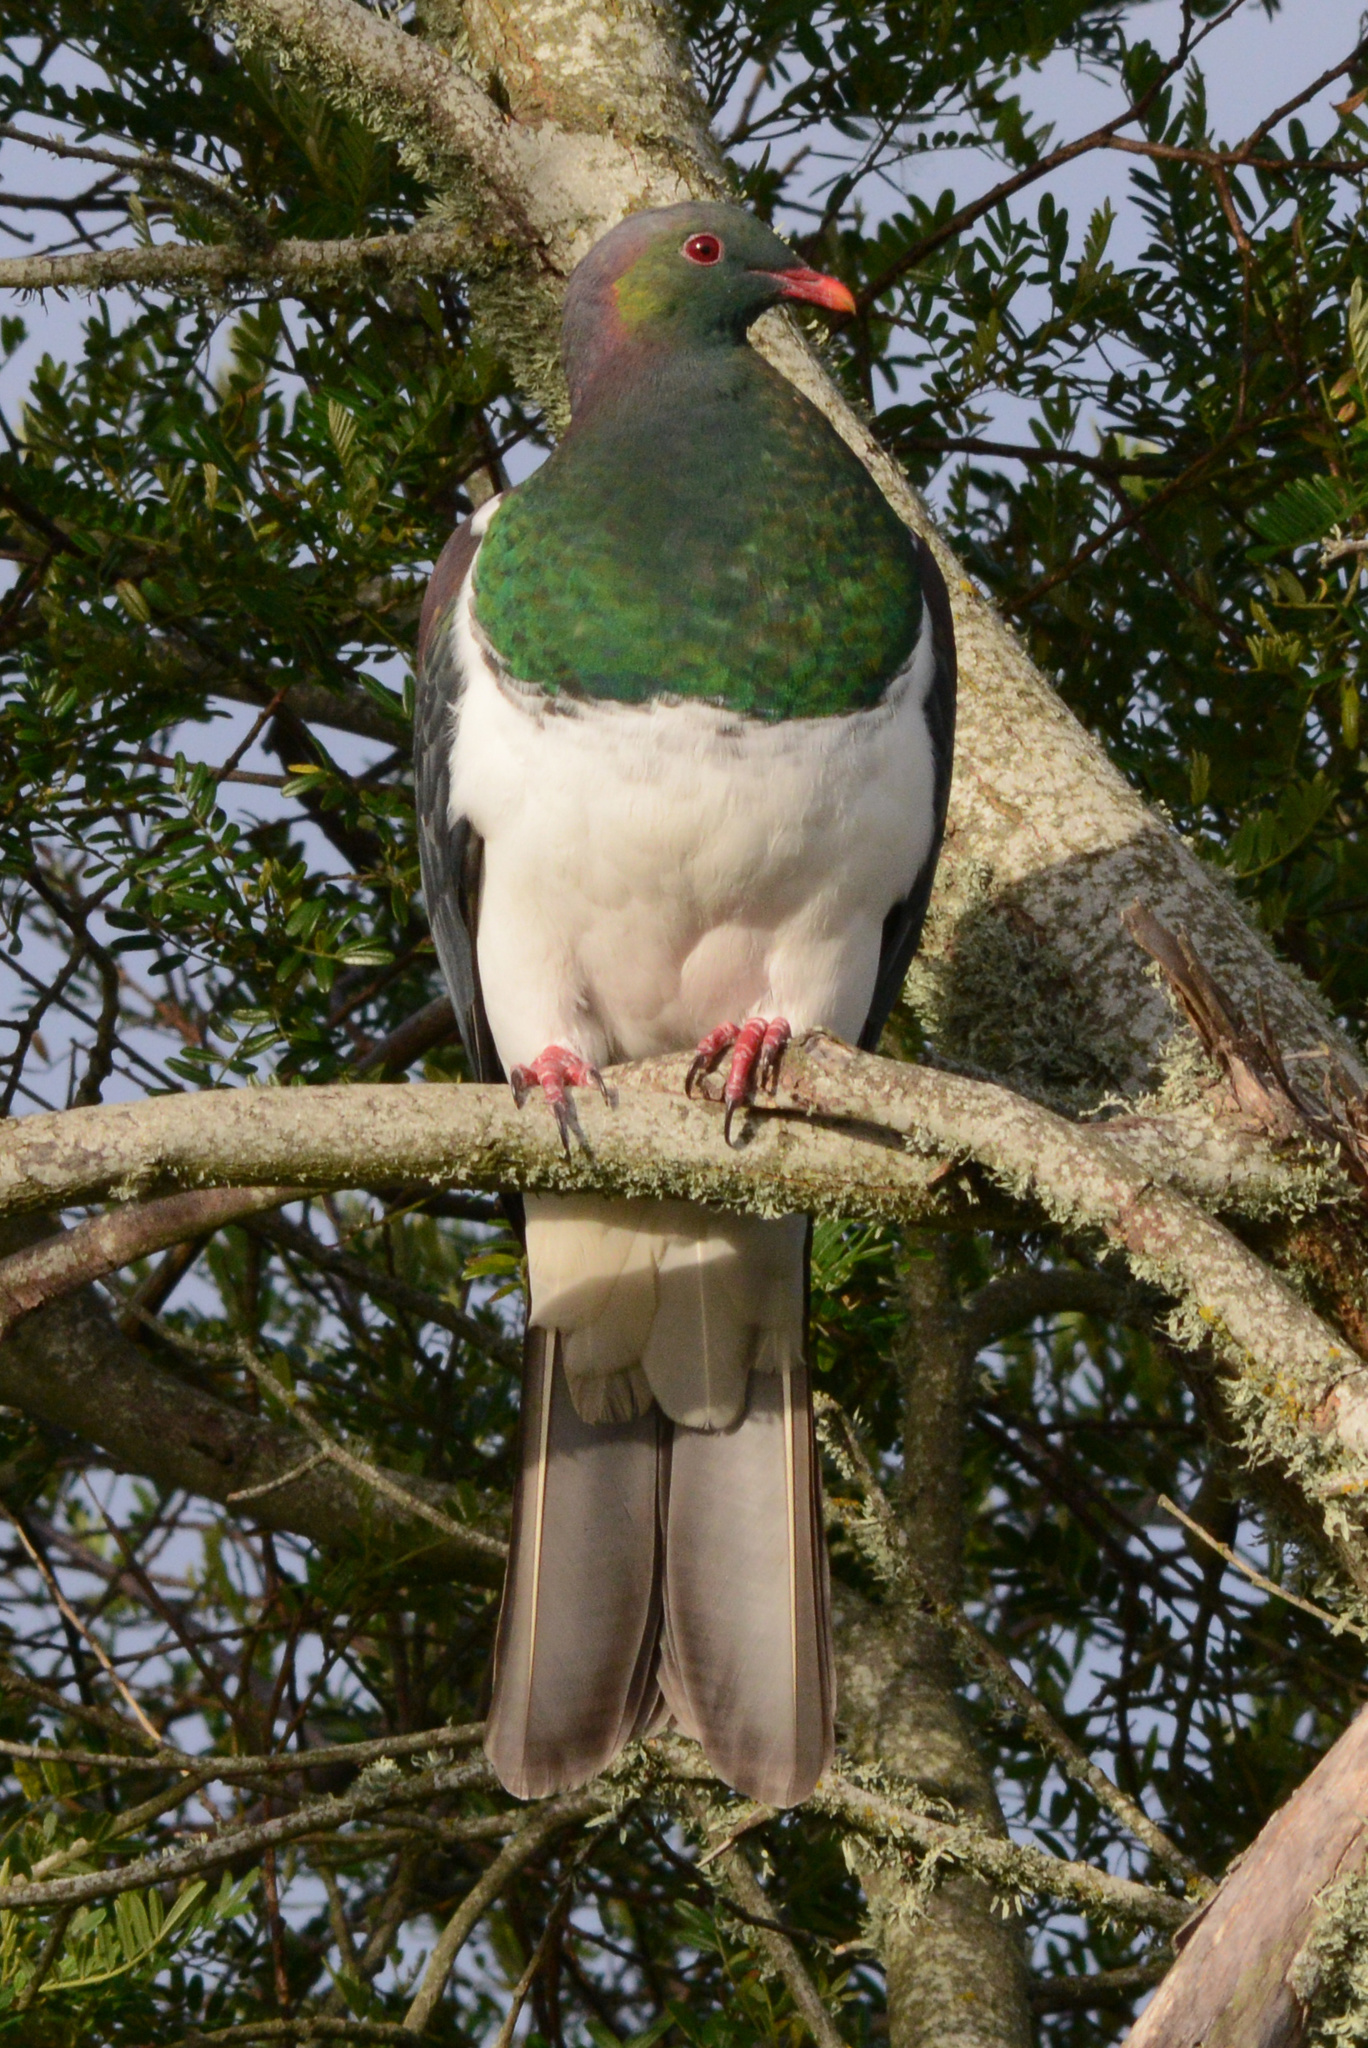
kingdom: Animalia
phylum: Chordata
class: Aves
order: Columbiformes
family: Columbidae
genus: Hemiphaga
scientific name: Hemiphaga novaeseelandiae
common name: New zealand pigeon
